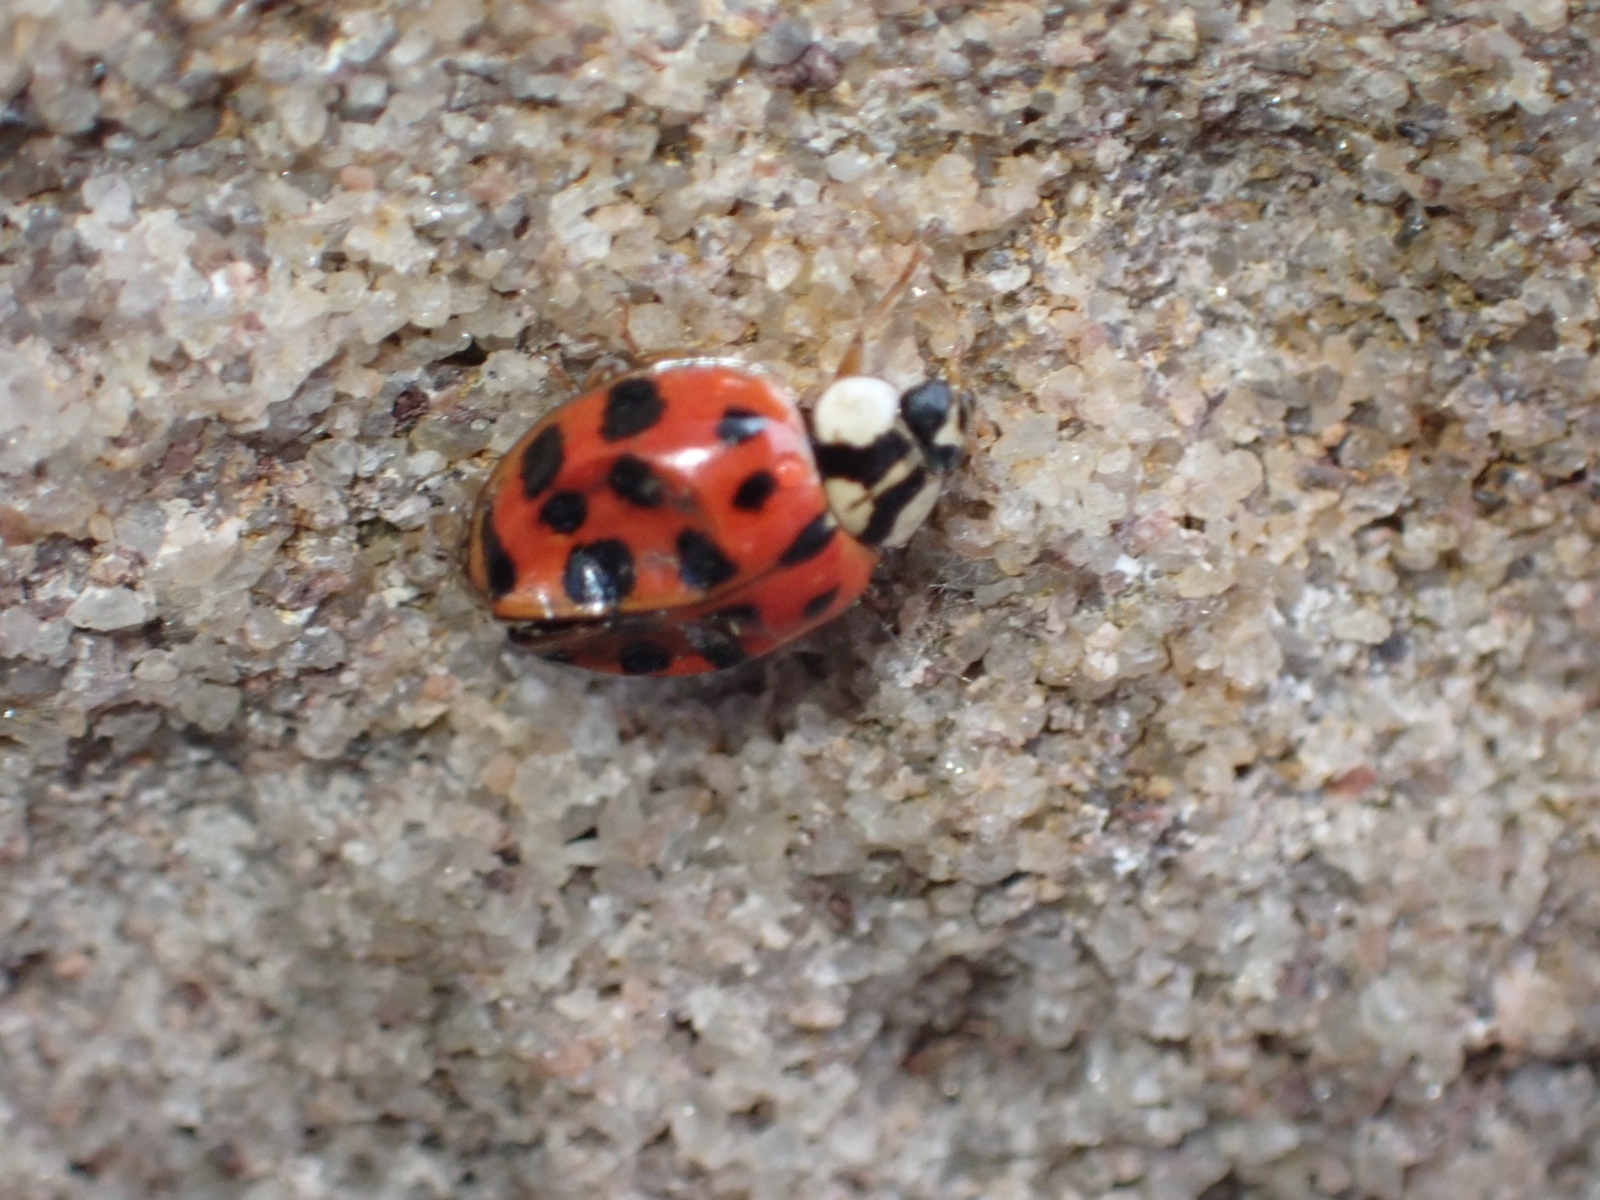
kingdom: Animalia
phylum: Arthropoda
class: Insecta
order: Coleoptera
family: Coccinellidae
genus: Harmonia
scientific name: Harmonia axyridis
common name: Harlequin ladybird
